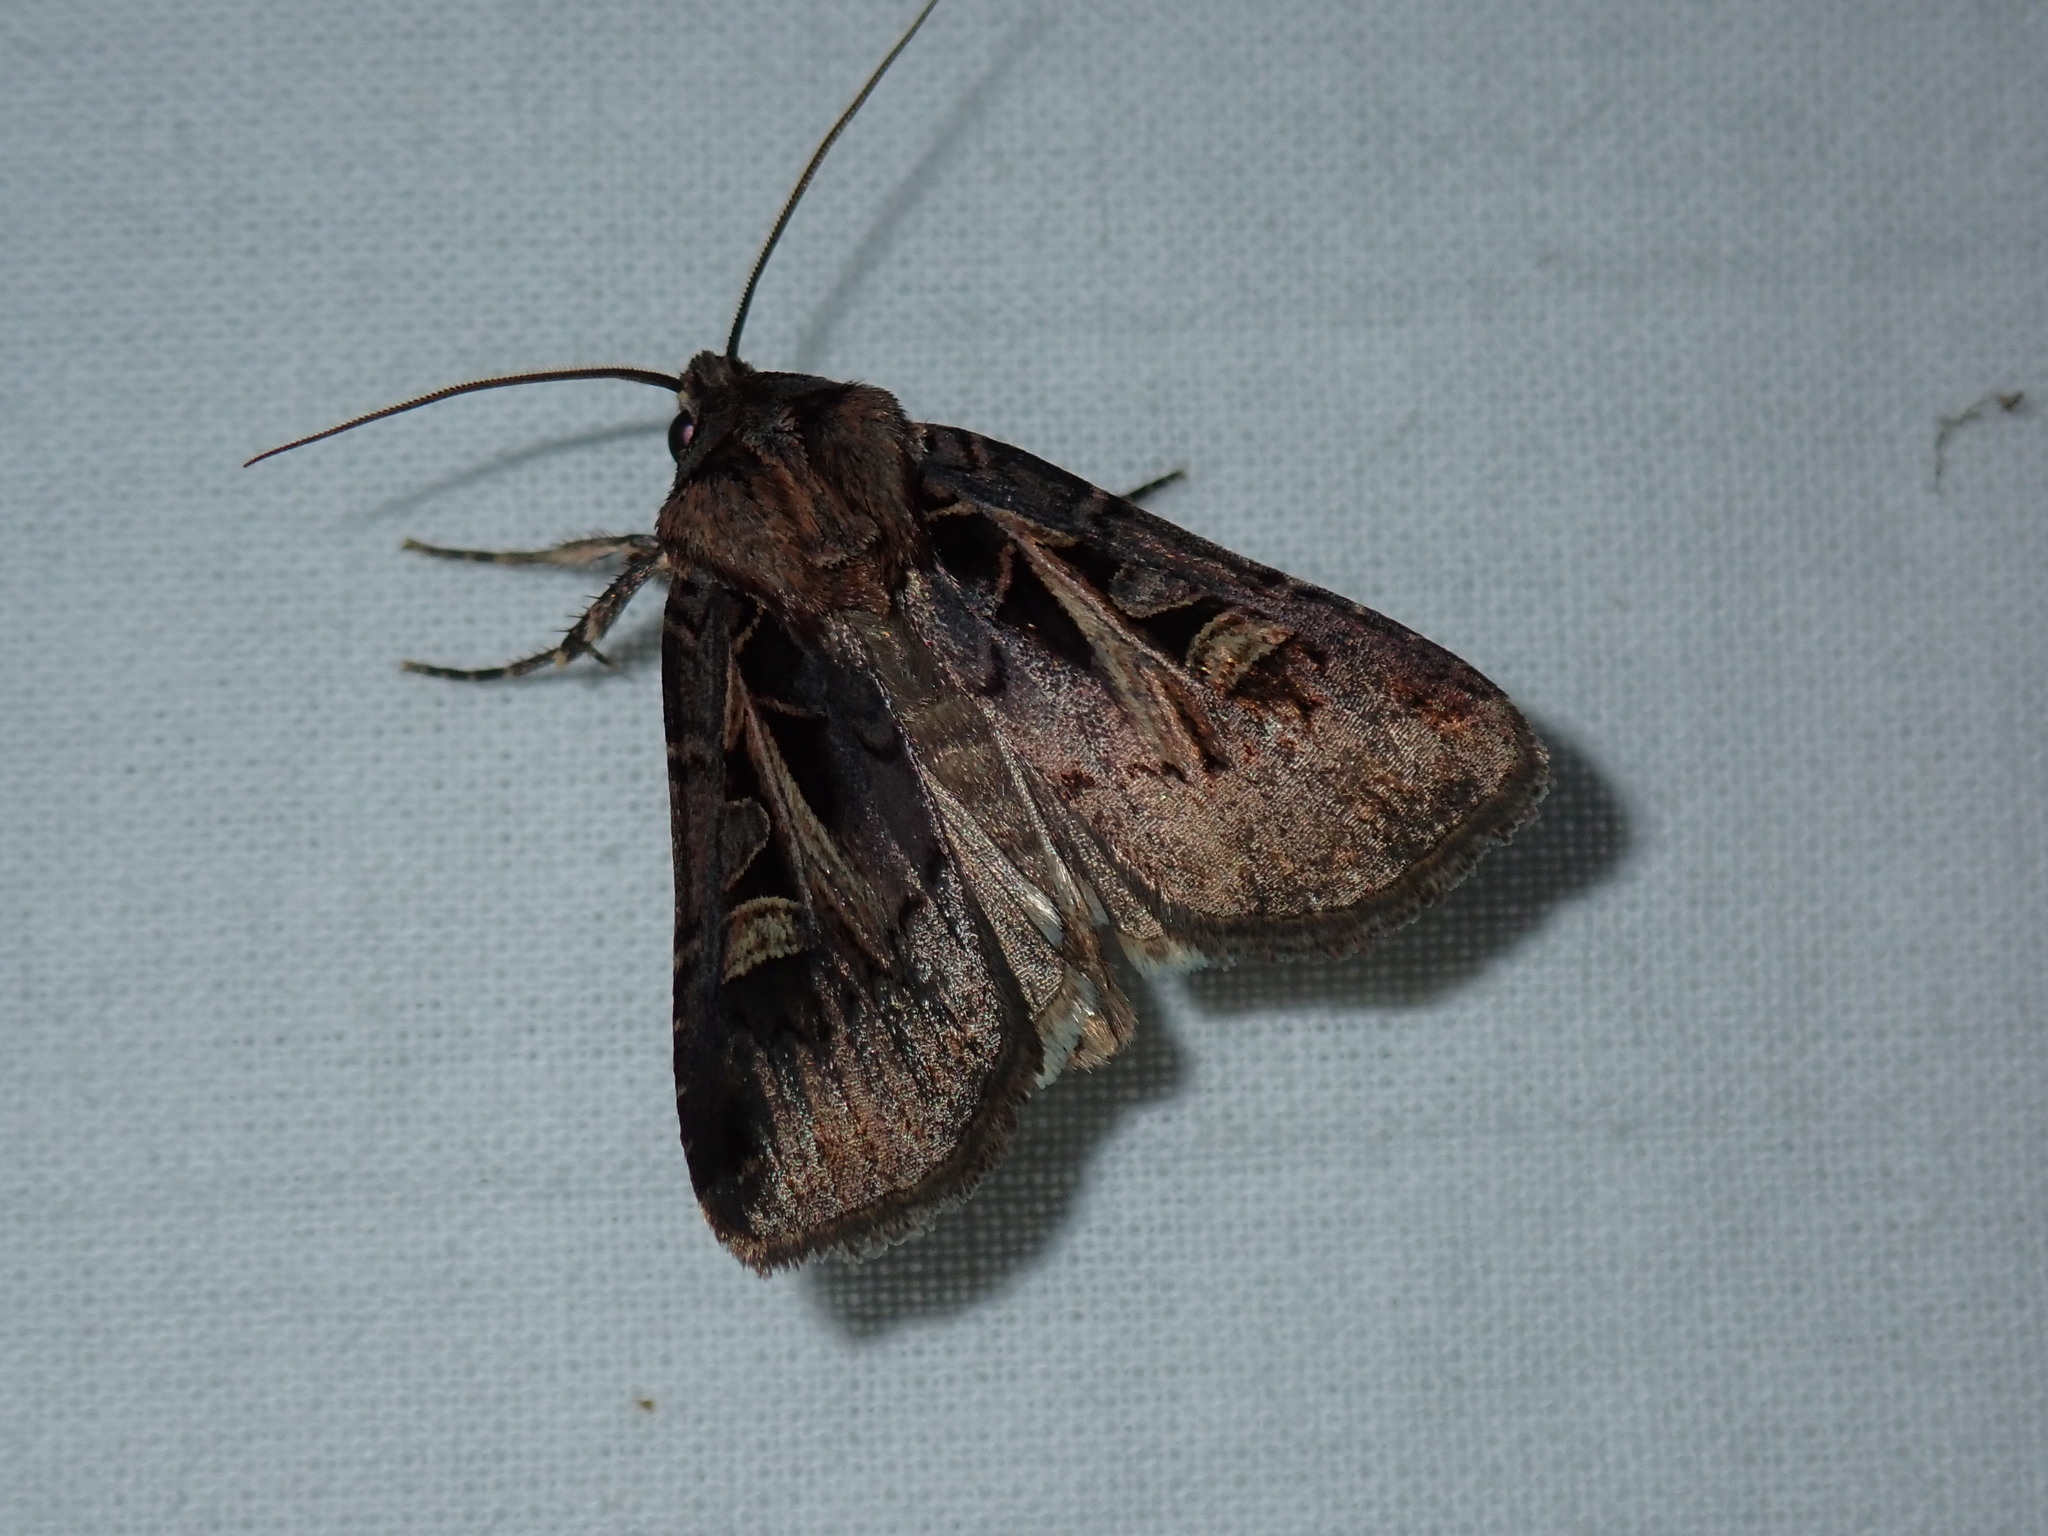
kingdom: Animalia
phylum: Arthropoda
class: Insecta
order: Lepidoptera
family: Noctuidae
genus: Feltia
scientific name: Feltia herilis
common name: Master's dart
